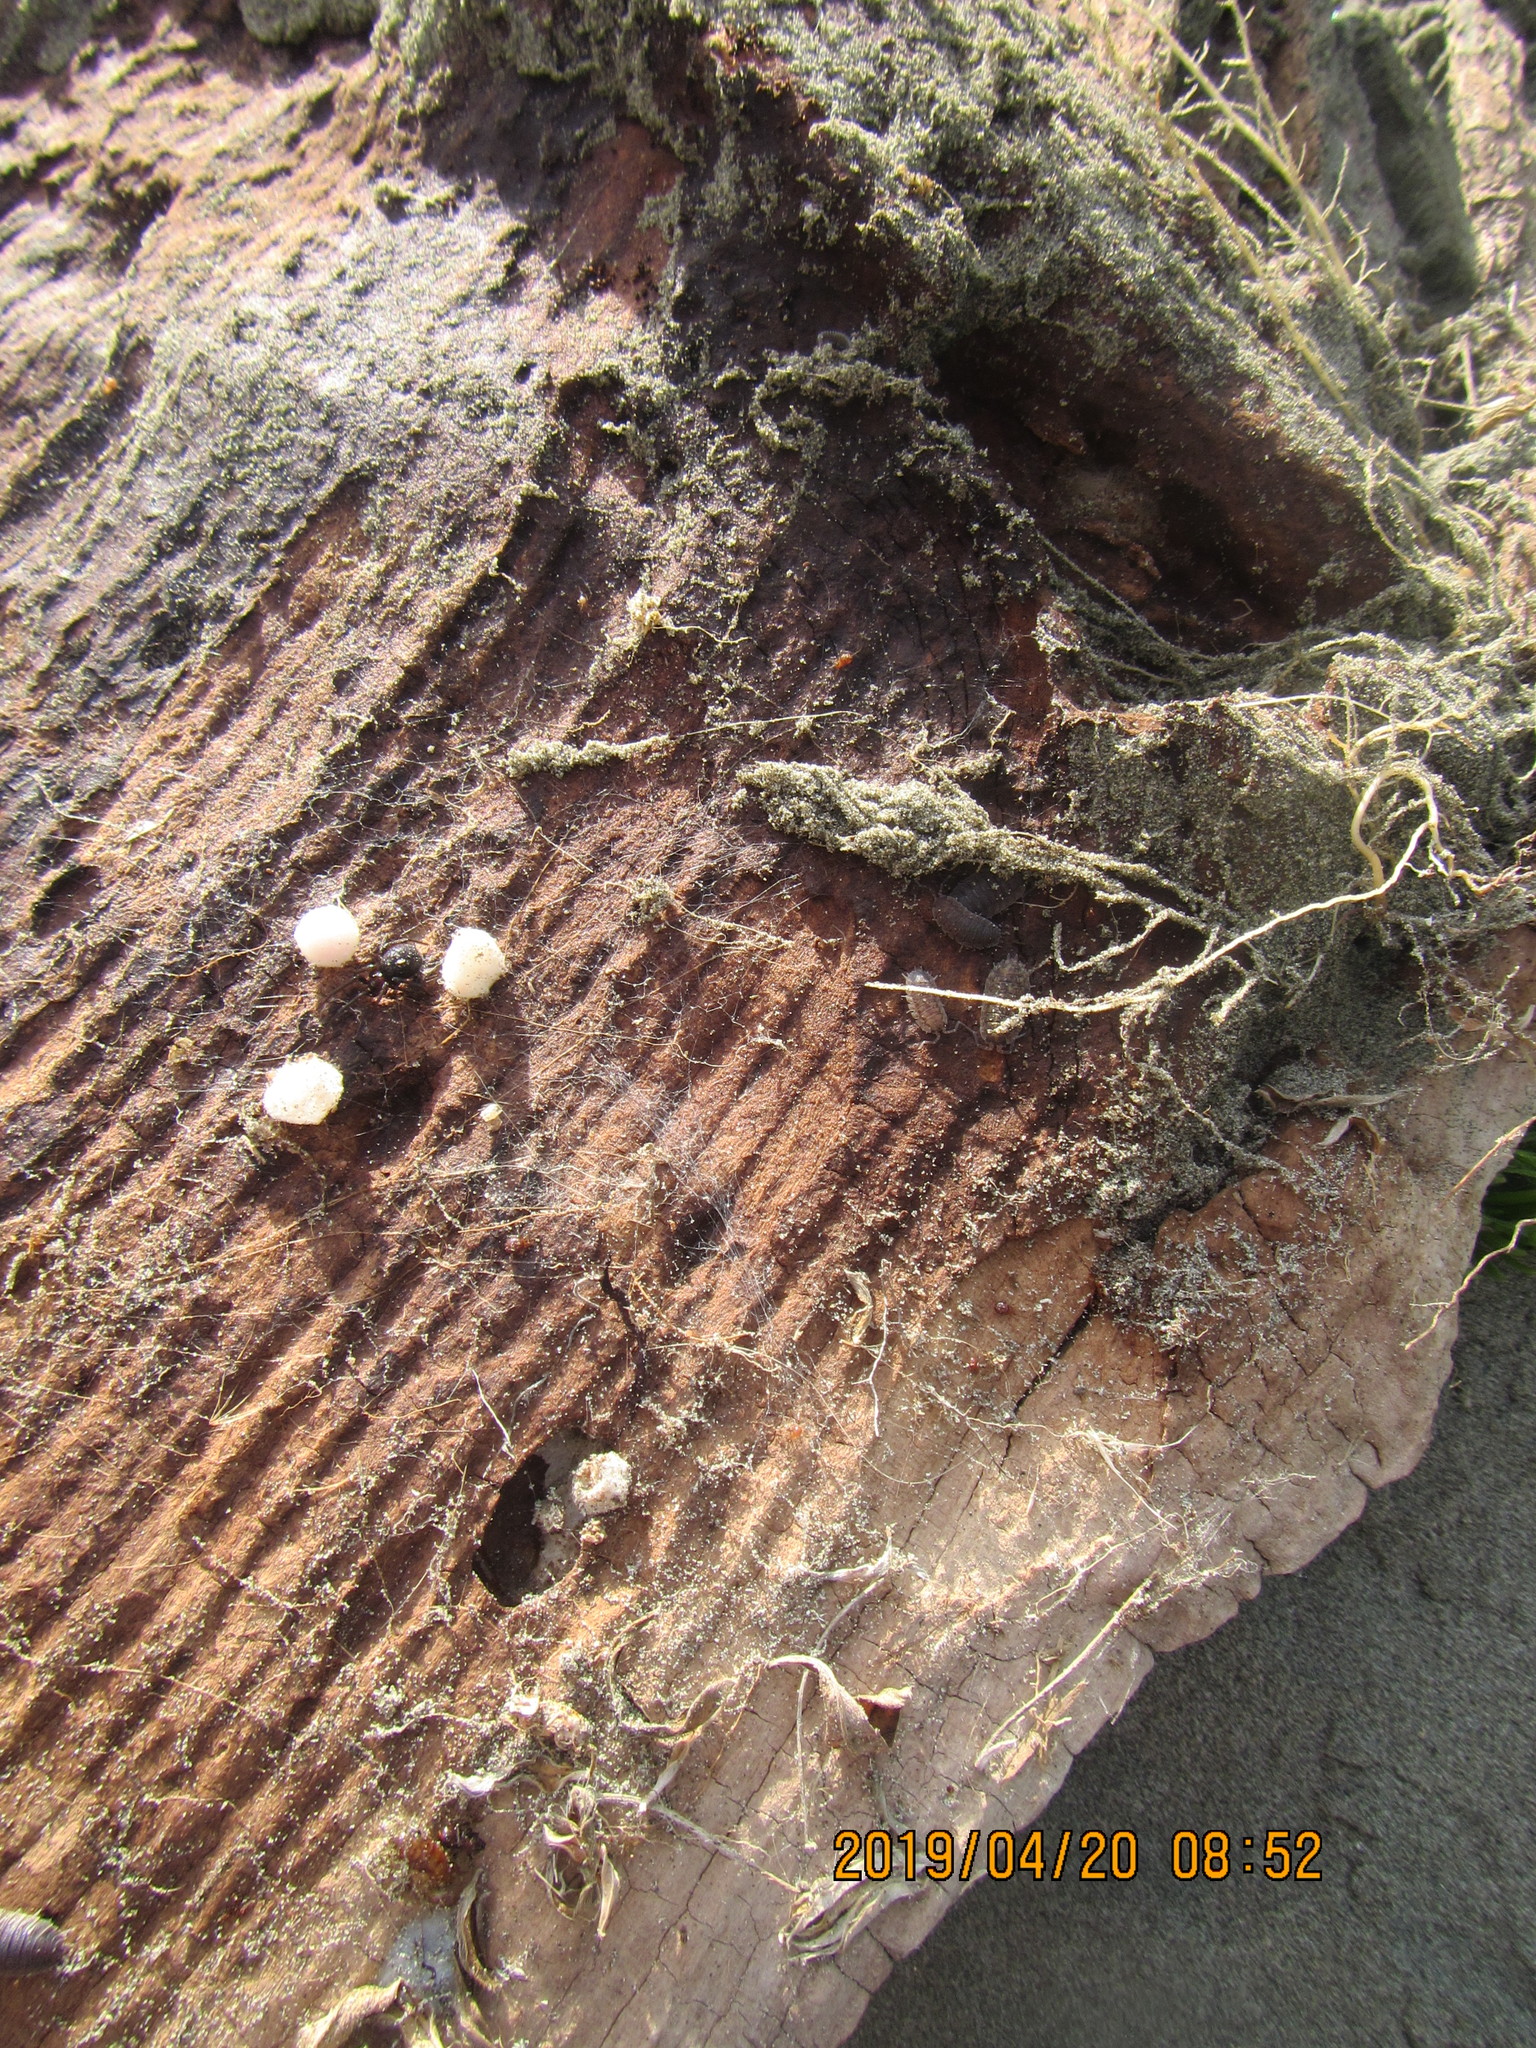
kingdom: Animalia
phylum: Arthropoda
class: Arachnida
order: Araneae
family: Theridiidae
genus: Steatoda
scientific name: Steatoda capensis
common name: Cobweb weaver
